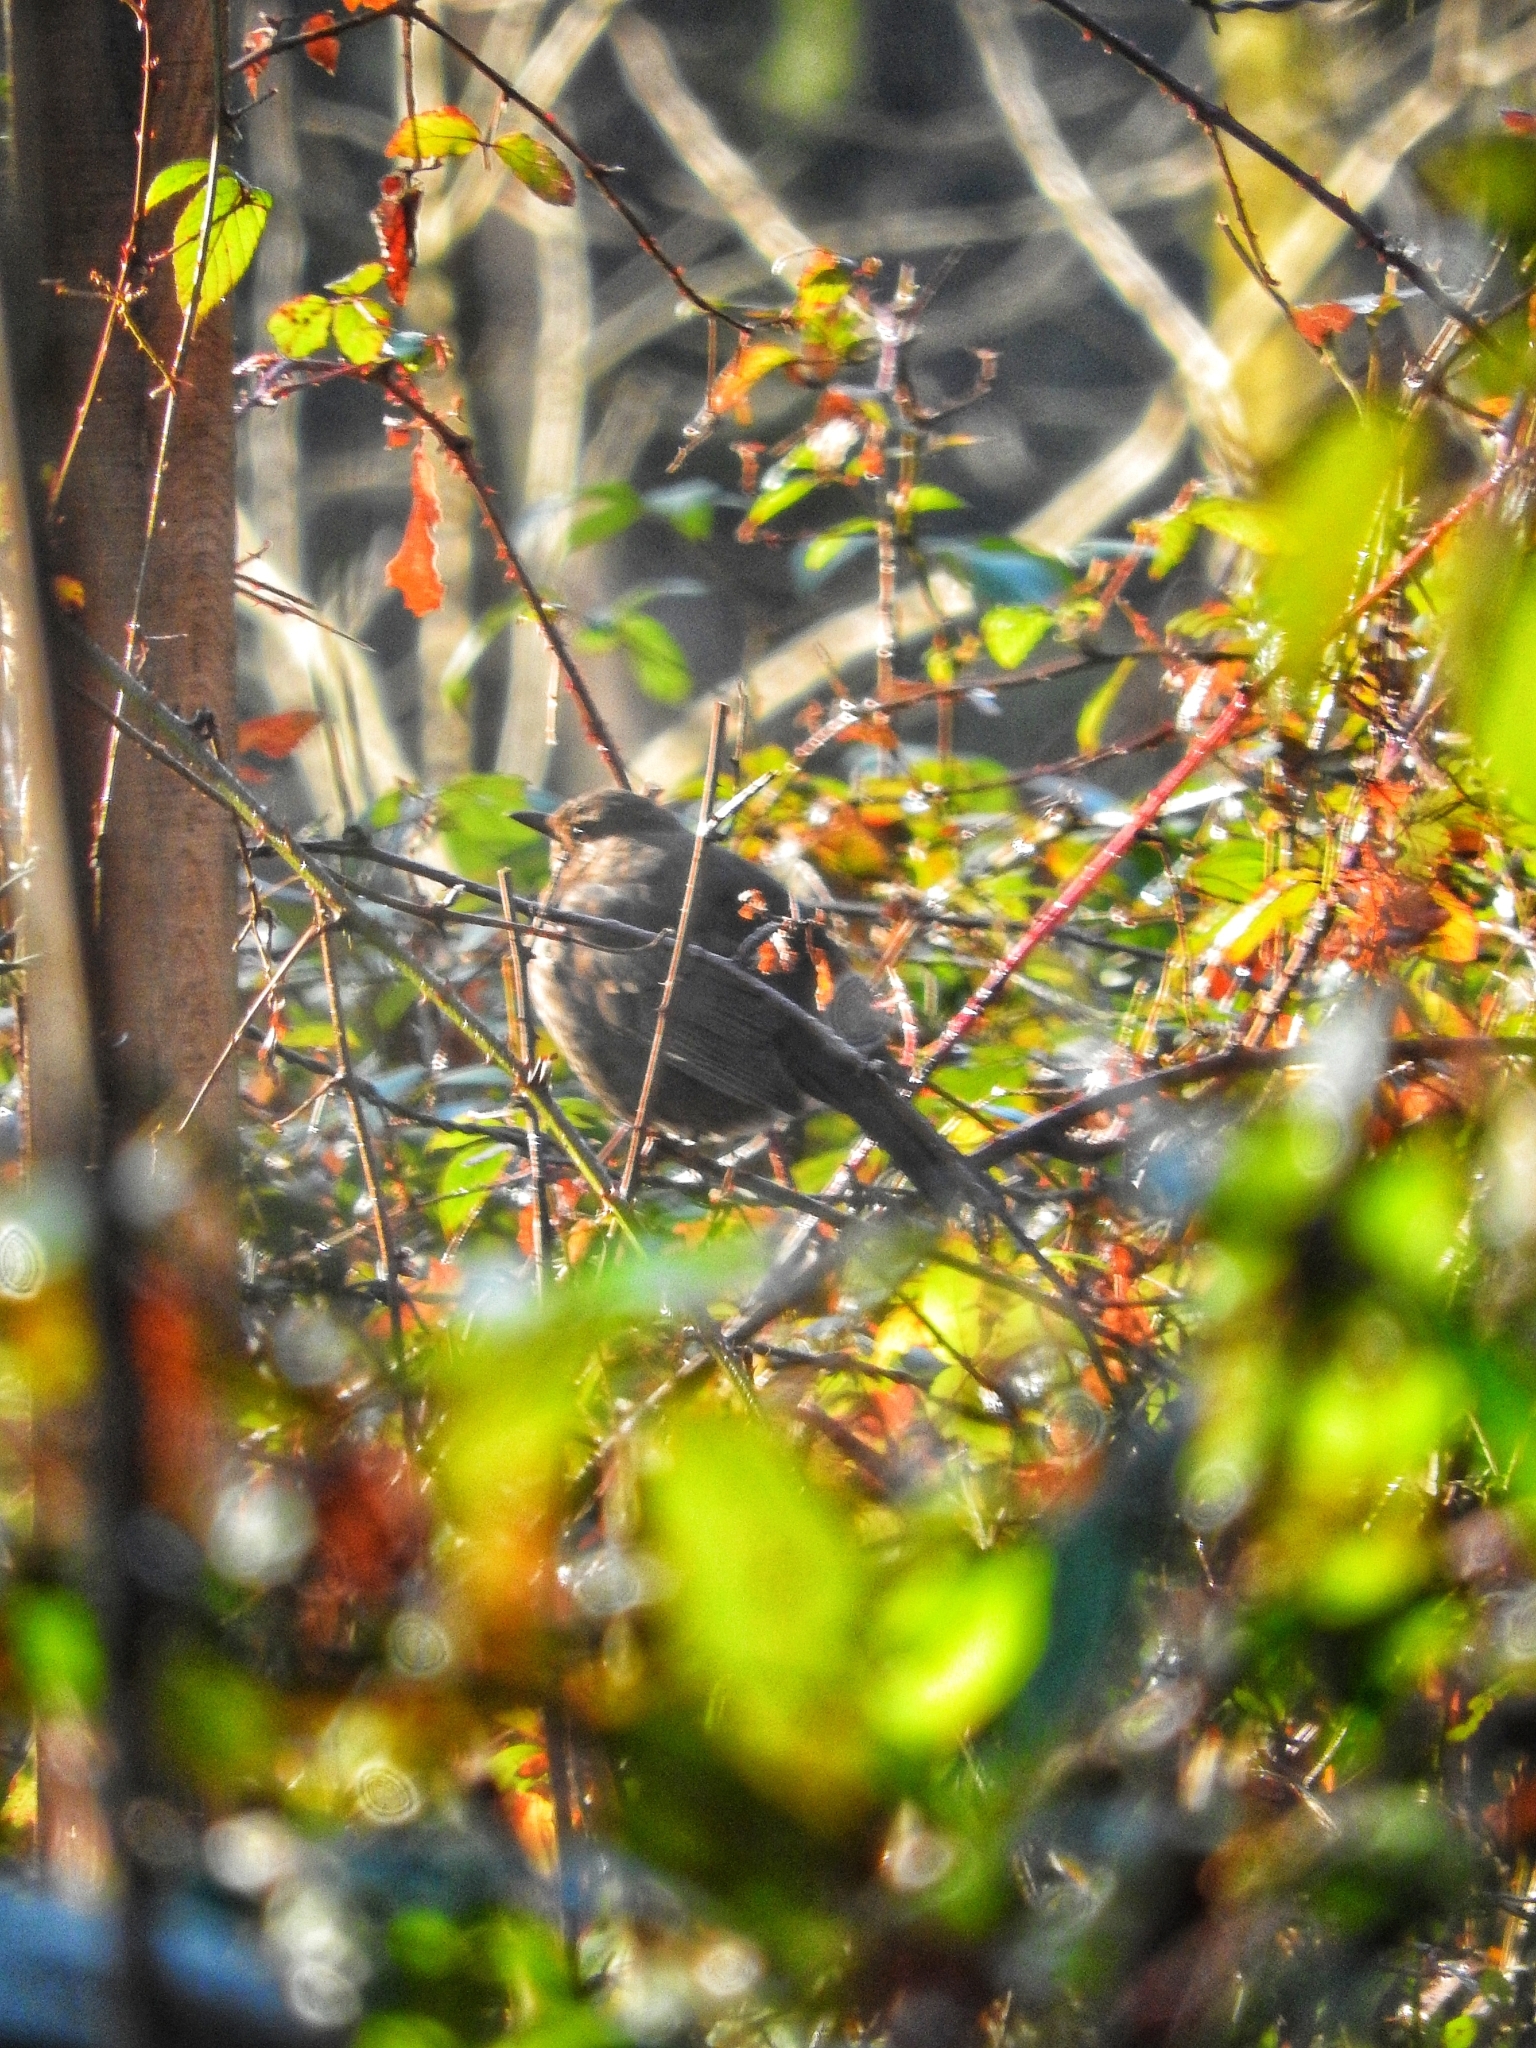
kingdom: Animalia
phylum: Chordata
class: Aves
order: Passeriformes
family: Turdidae
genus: Turdus
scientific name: Turdus merula
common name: Common blackbird
